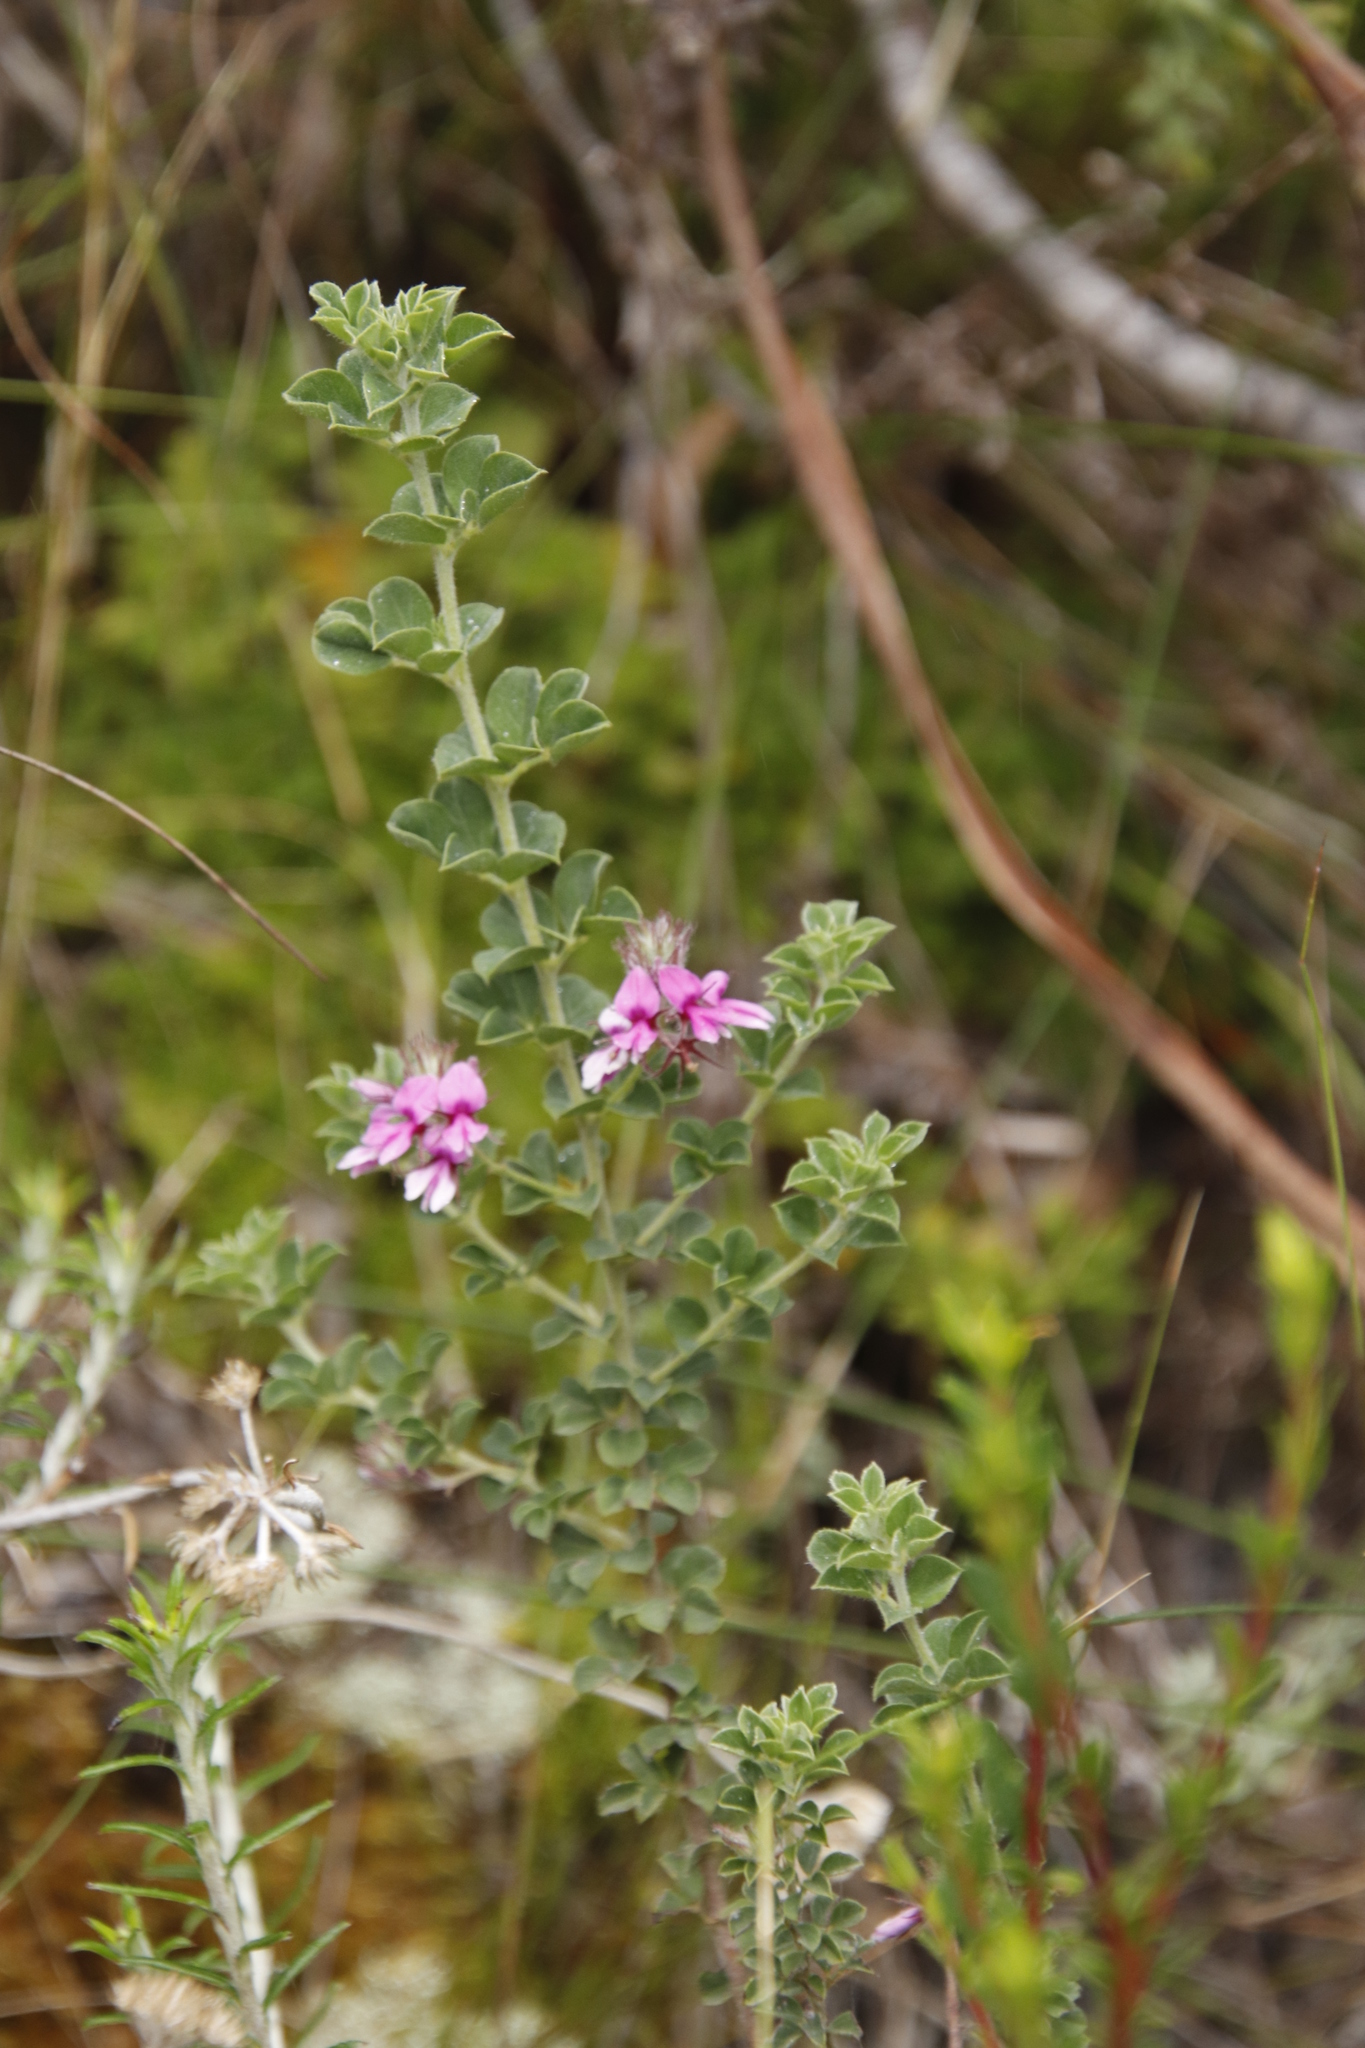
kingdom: Plantae
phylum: Tracheophyta
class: Magnoliopsida
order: Fabales
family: Fabaceae
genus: Indigofera
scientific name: Indigofera candolleana
